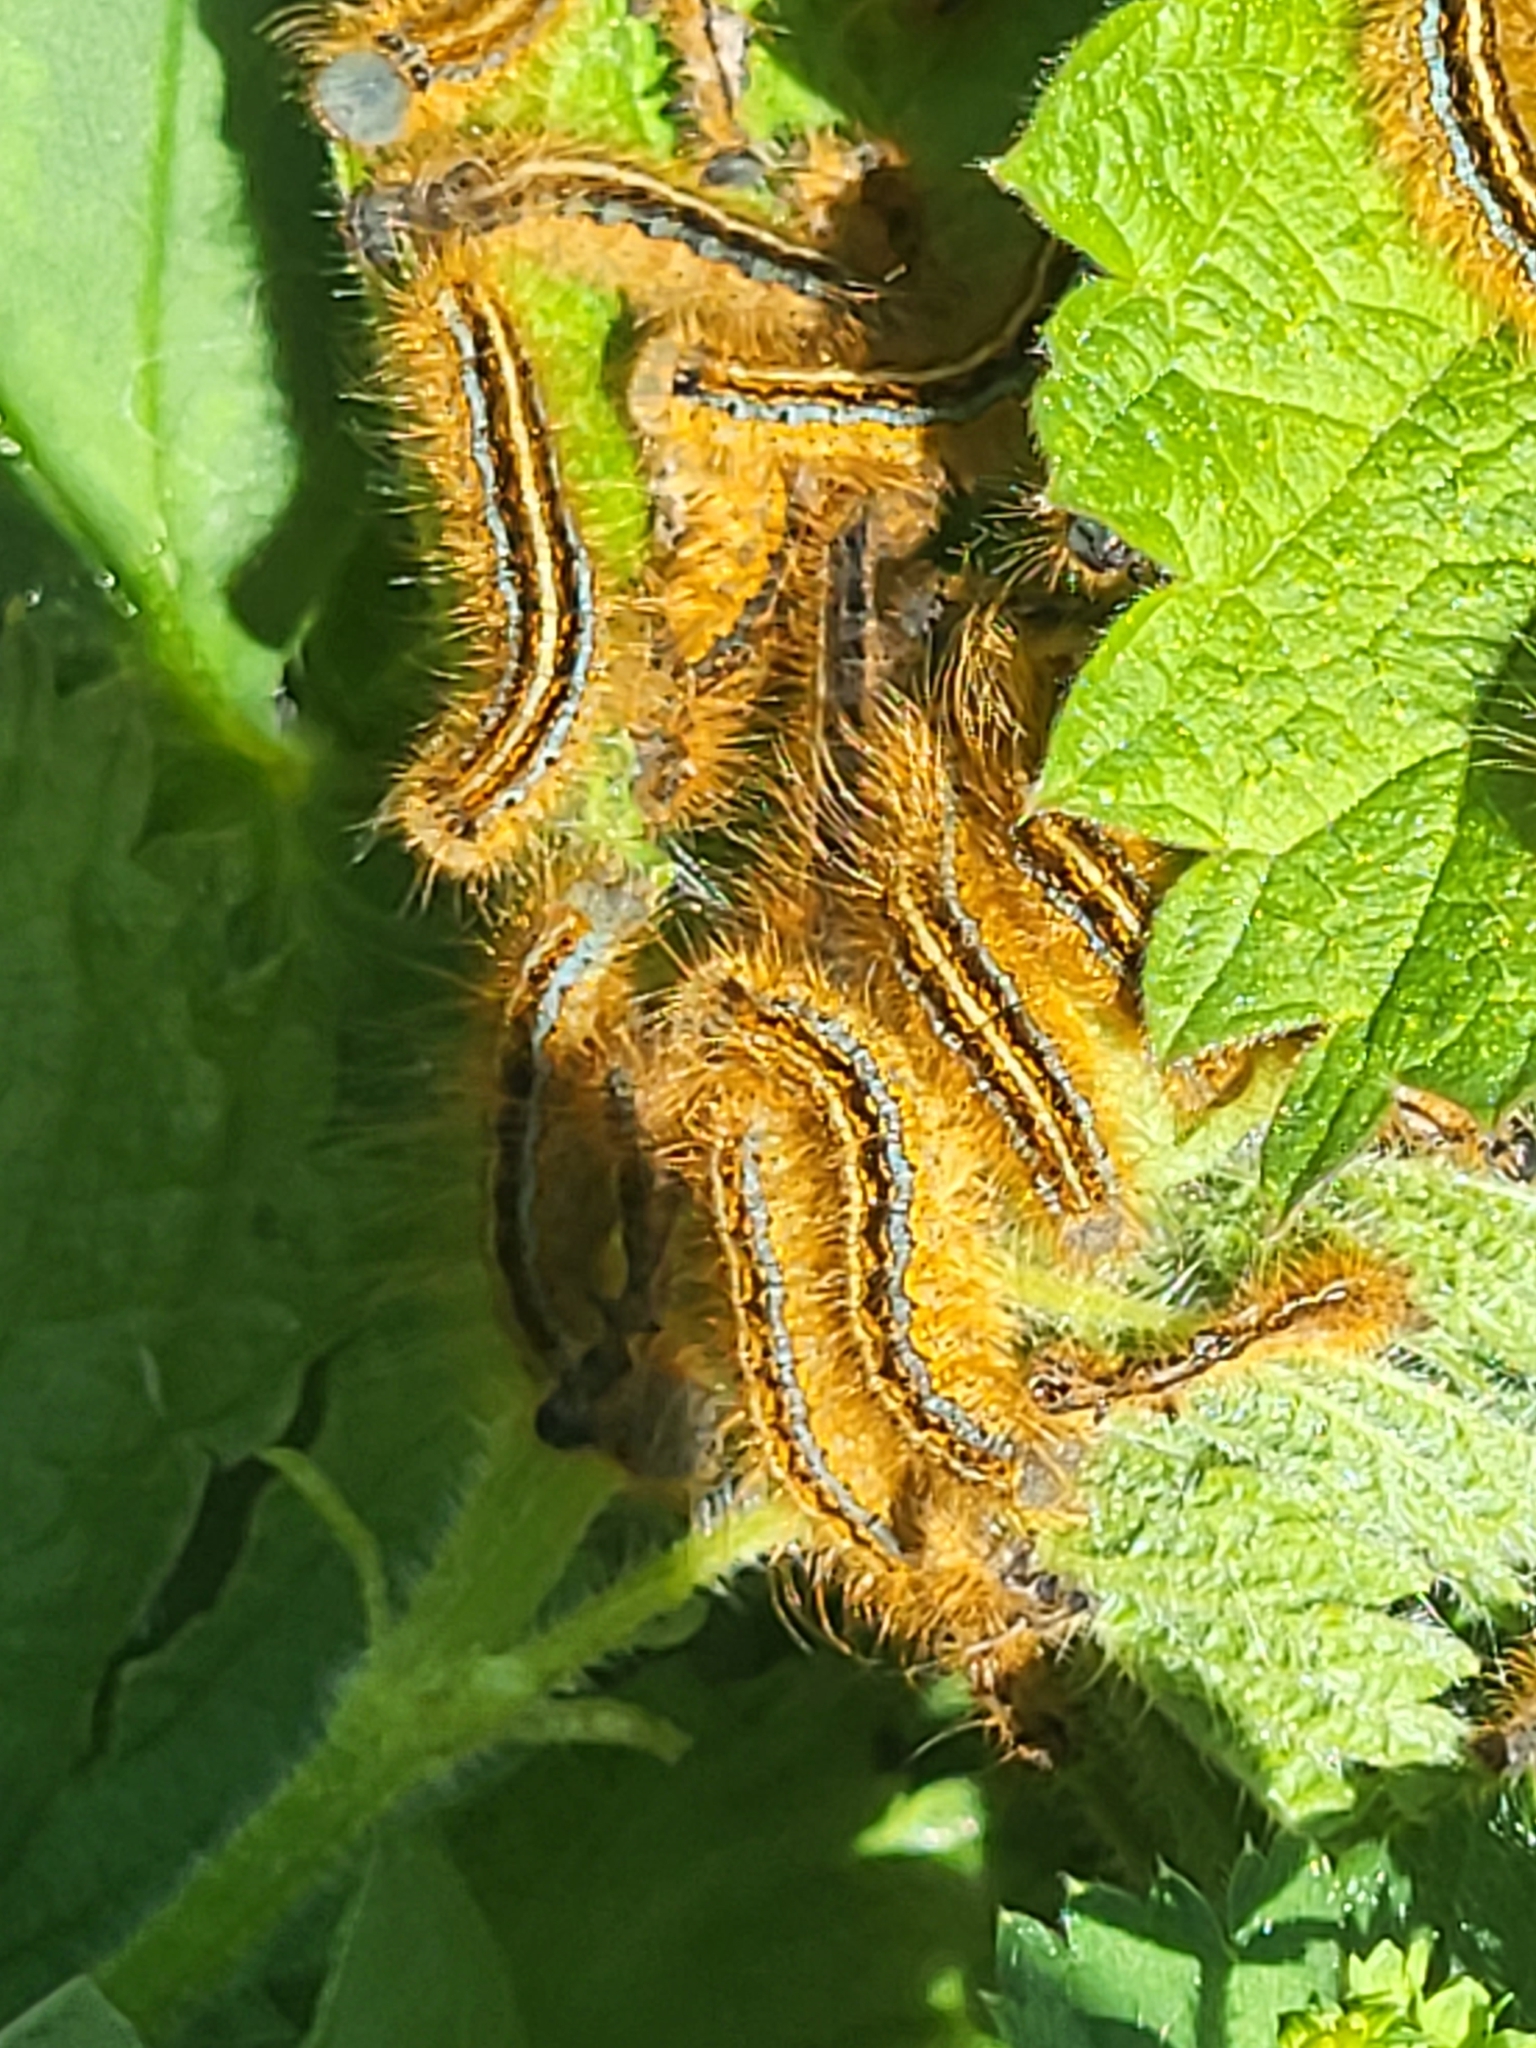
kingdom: Animalia
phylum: Arthropoda
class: Insecta
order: Lepidoptera
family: Lasiocampidae
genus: Malacosoma
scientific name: Malacosoma castrense
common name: Ground lackey
